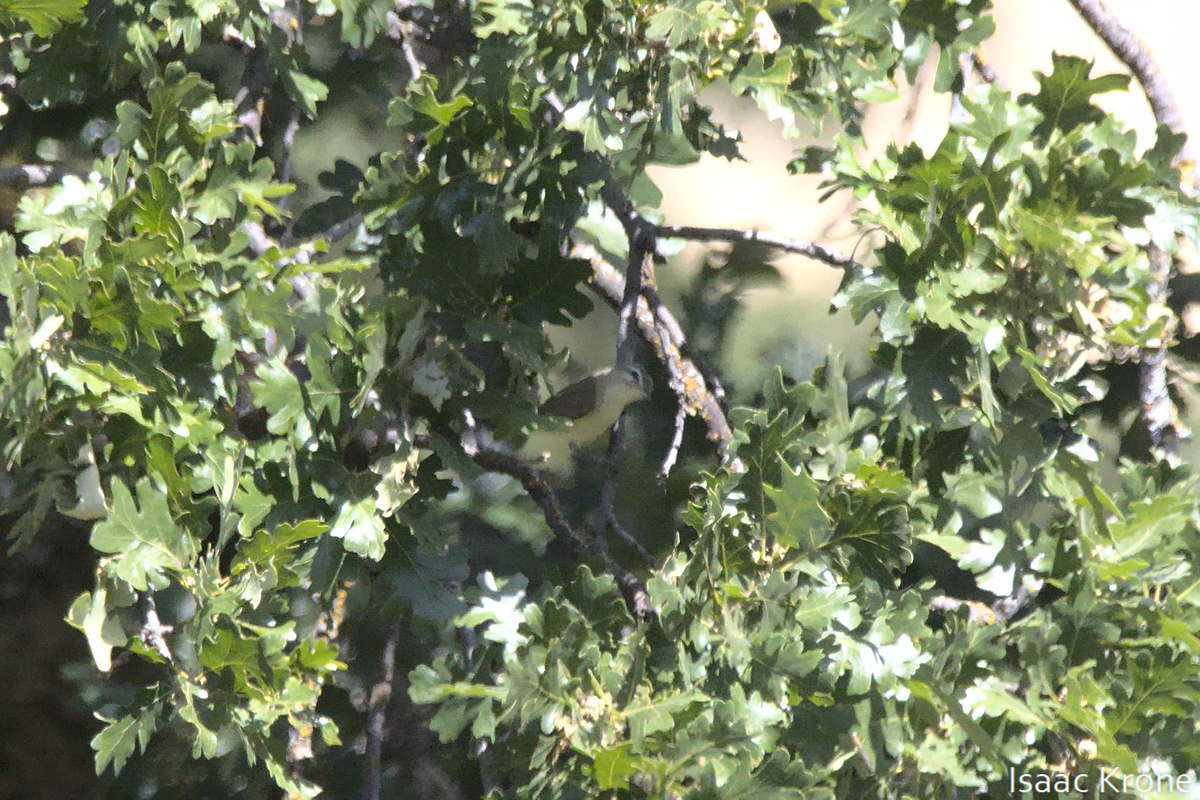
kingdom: Animalia
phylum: Chordata
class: Aves
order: Passeriformes
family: Vireonidae
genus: Vireo
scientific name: Vireo gilvus
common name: Warbling vireo
